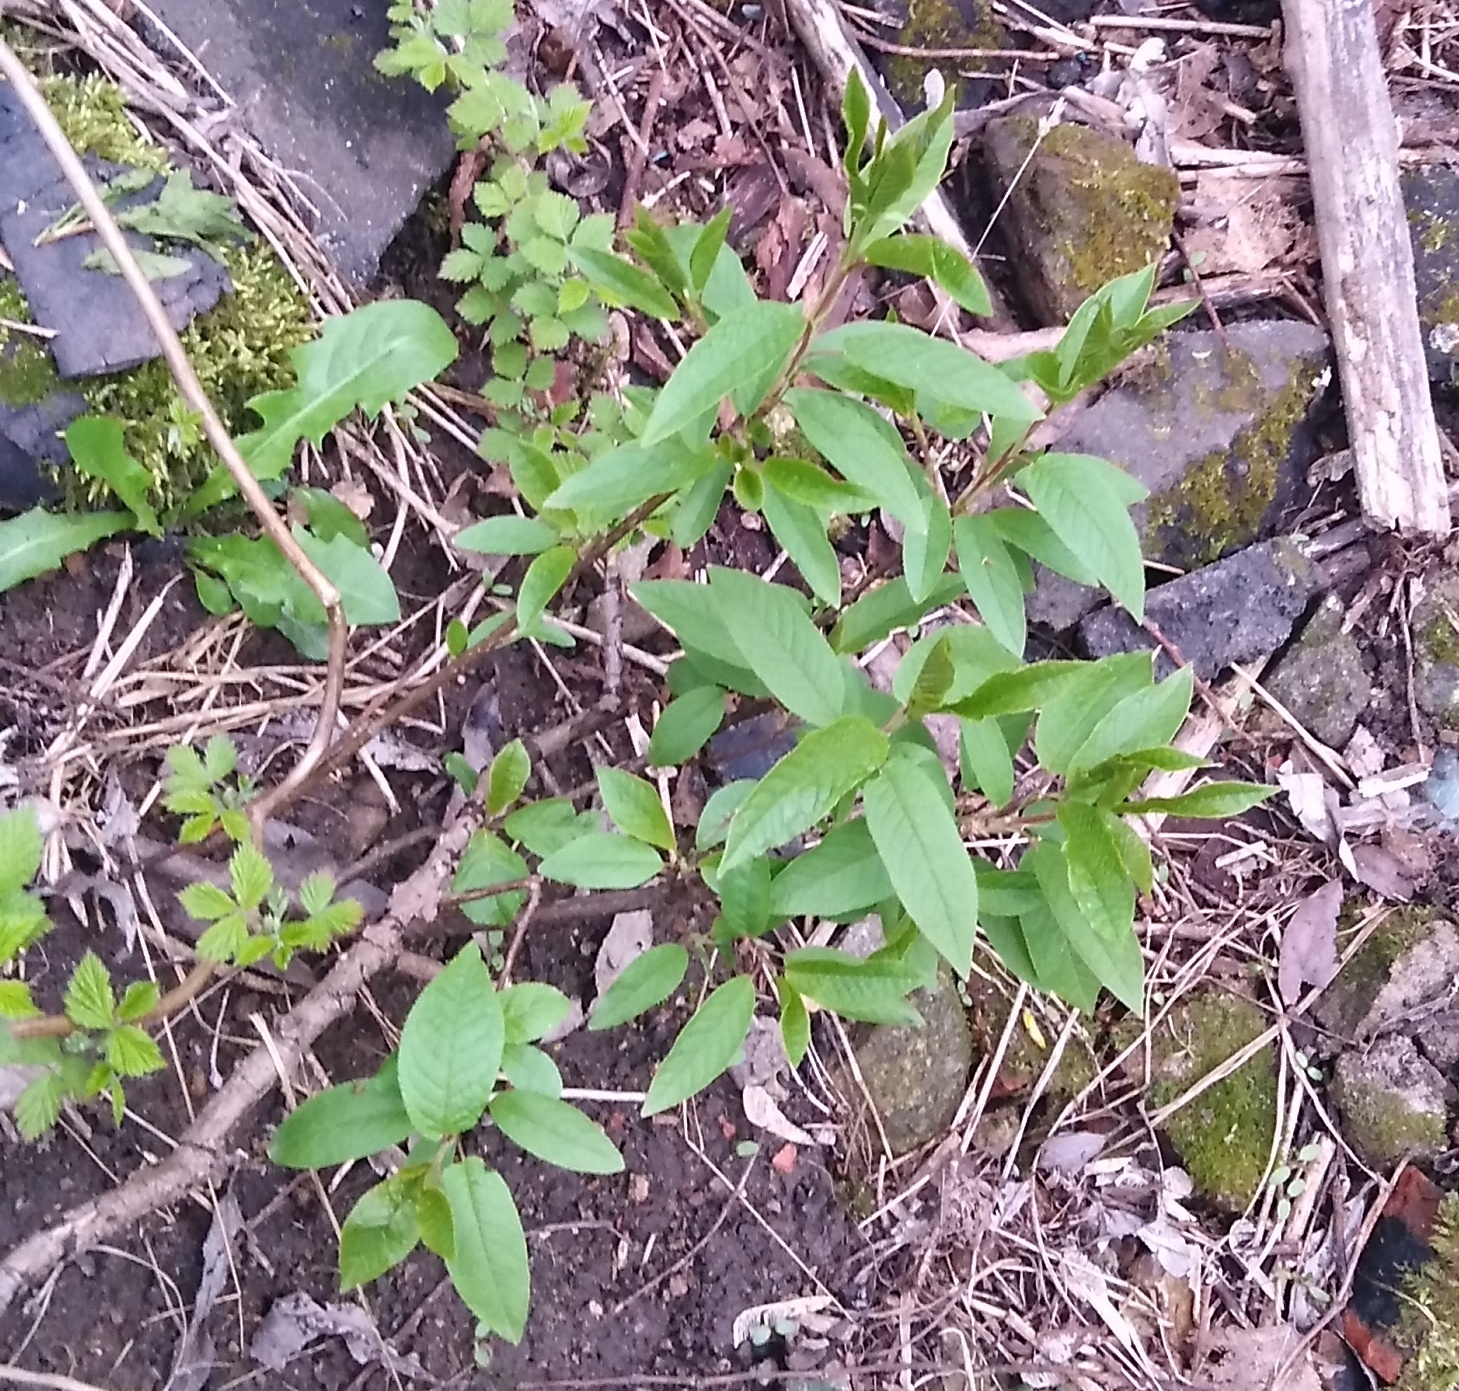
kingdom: Plantae
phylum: Tracheophyta
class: Magnoliopsida
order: Rosales
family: Rosaceae
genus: Prunus
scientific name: Prunus padus
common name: Bird cherry
